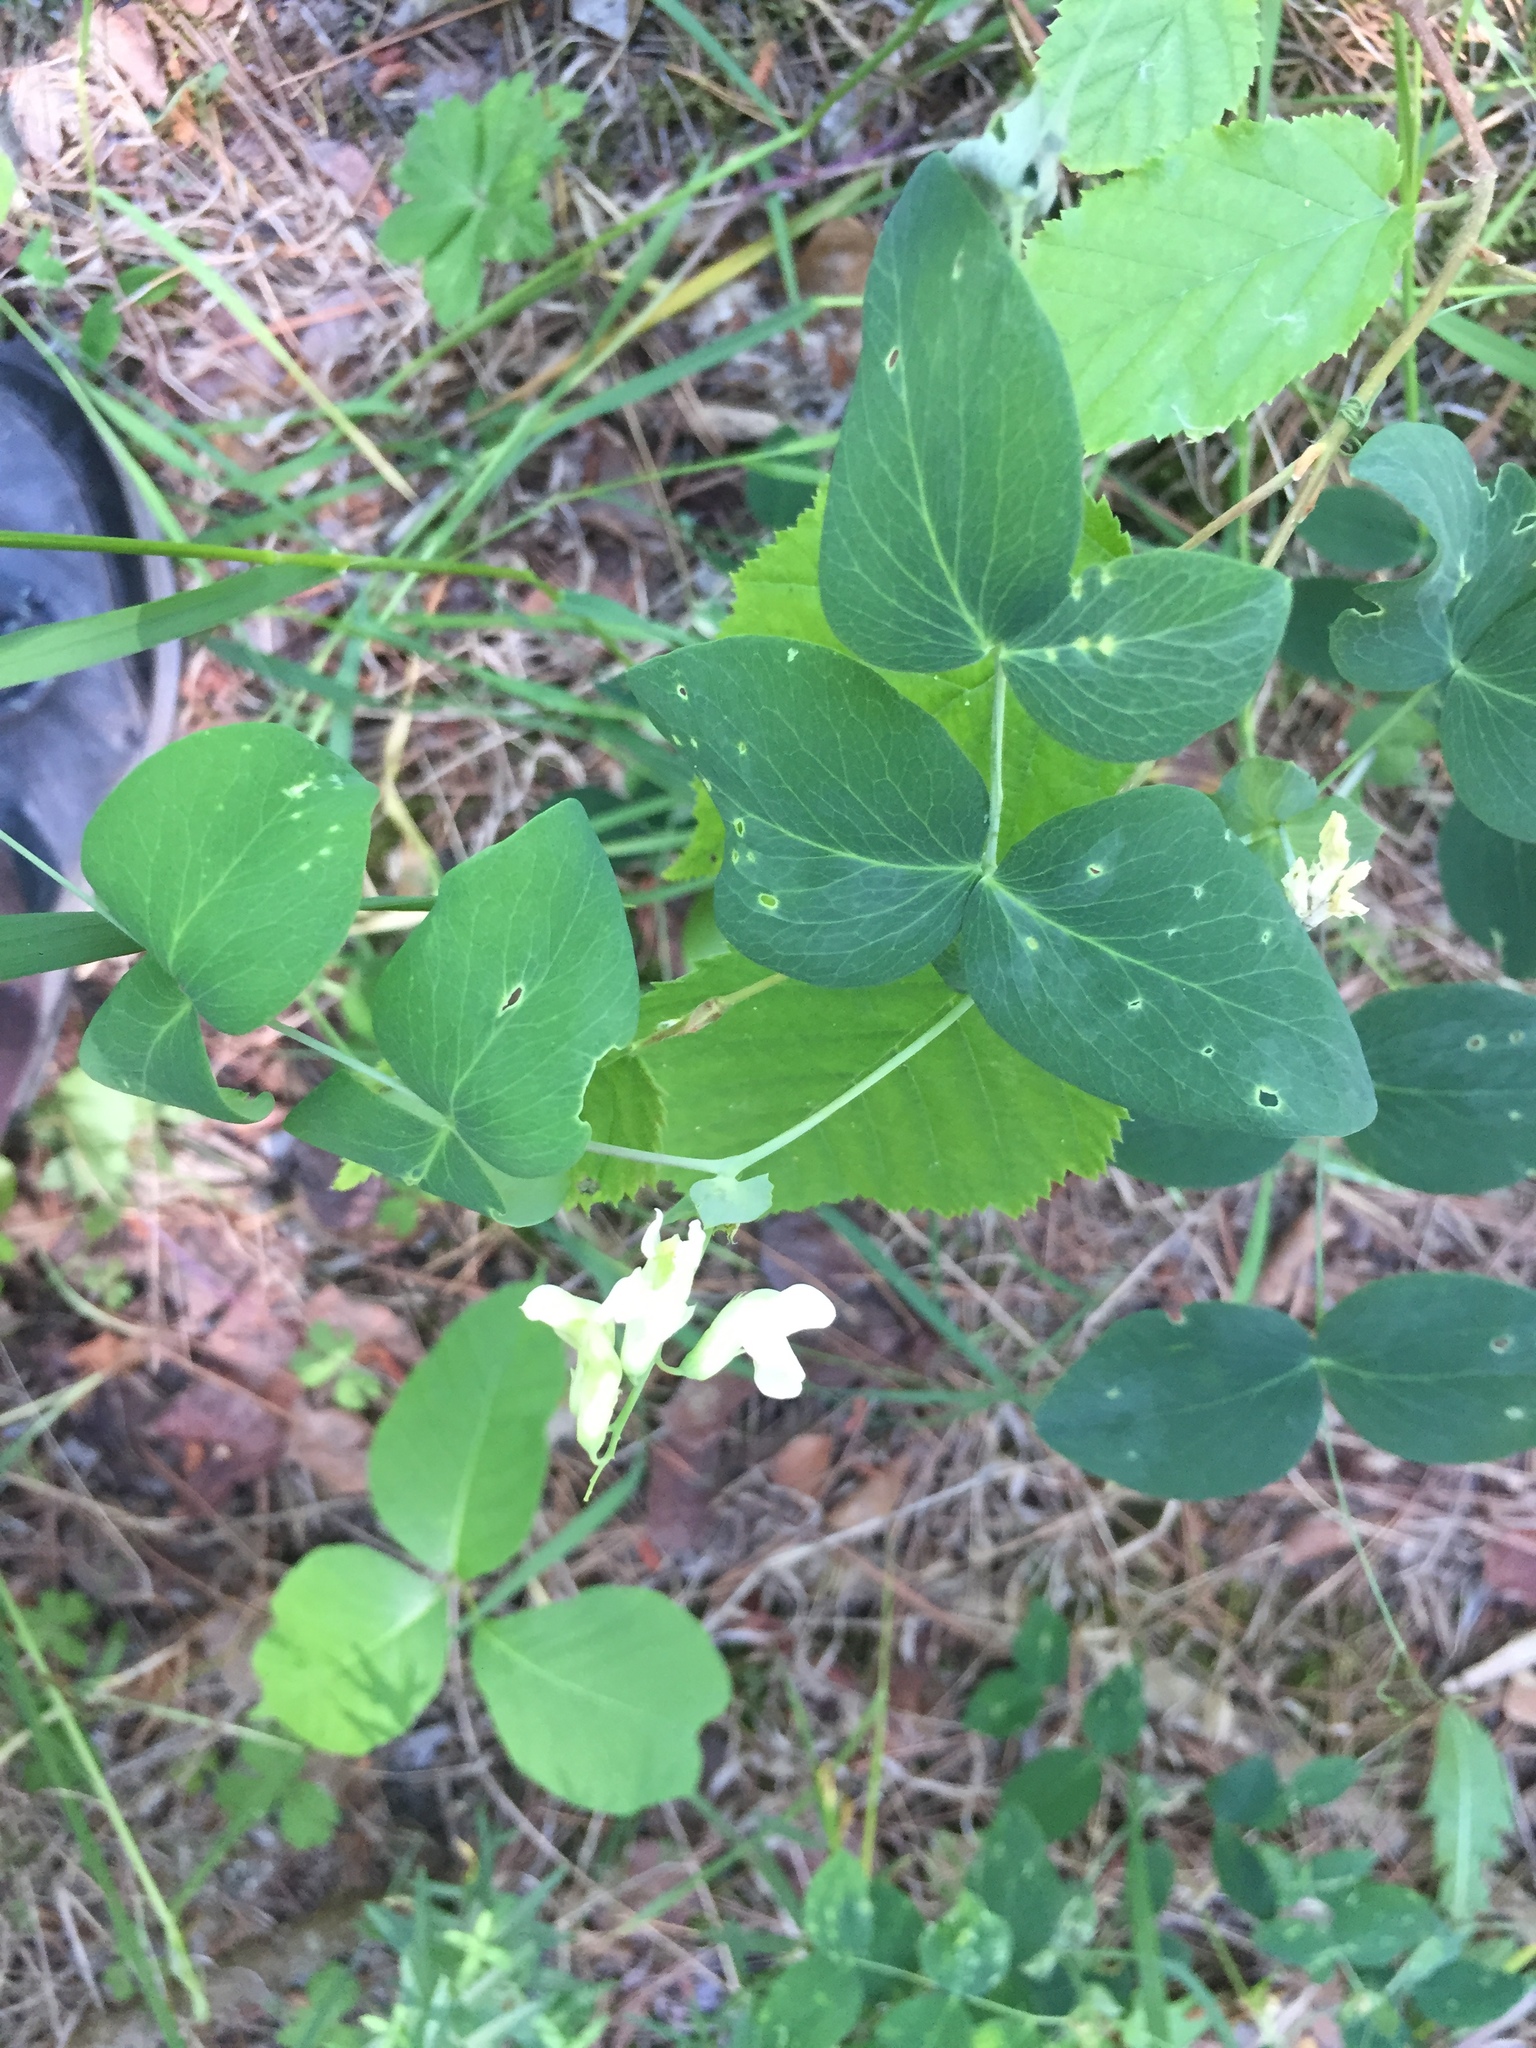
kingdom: Plantae
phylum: Tracheophyta
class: Magnoliopsida
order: Fabales
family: Fabaceae
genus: Lathyrus
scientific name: Lathyrus ochroleucus
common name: Pale vetchling
